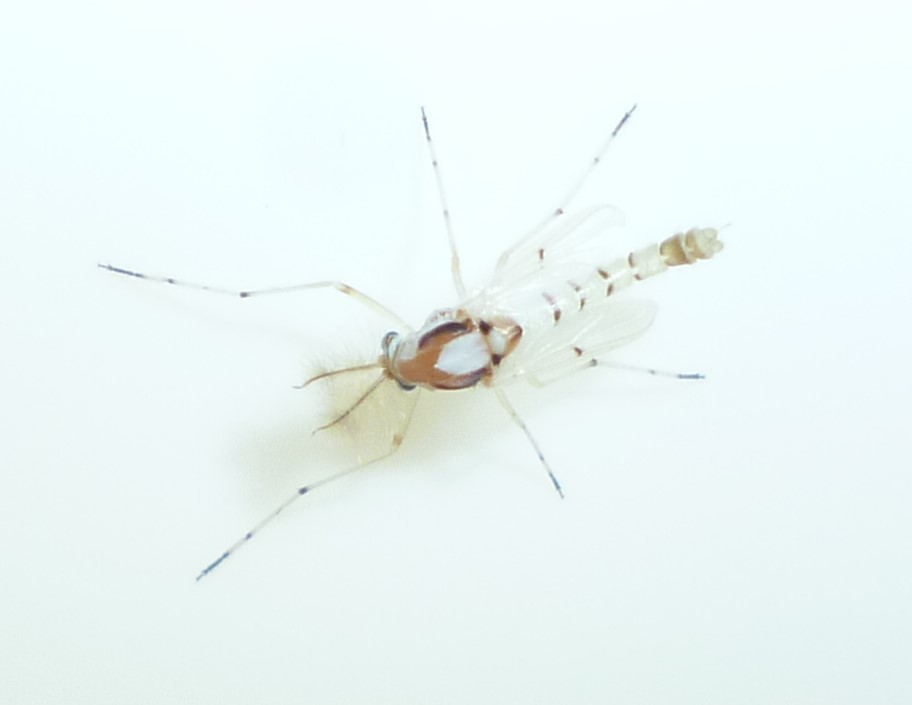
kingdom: Animalia
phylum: Arthropoda
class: Insecta
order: Diptera
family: Chironomidae
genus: Coelotanypus
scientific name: Coelotanypus concinnus
